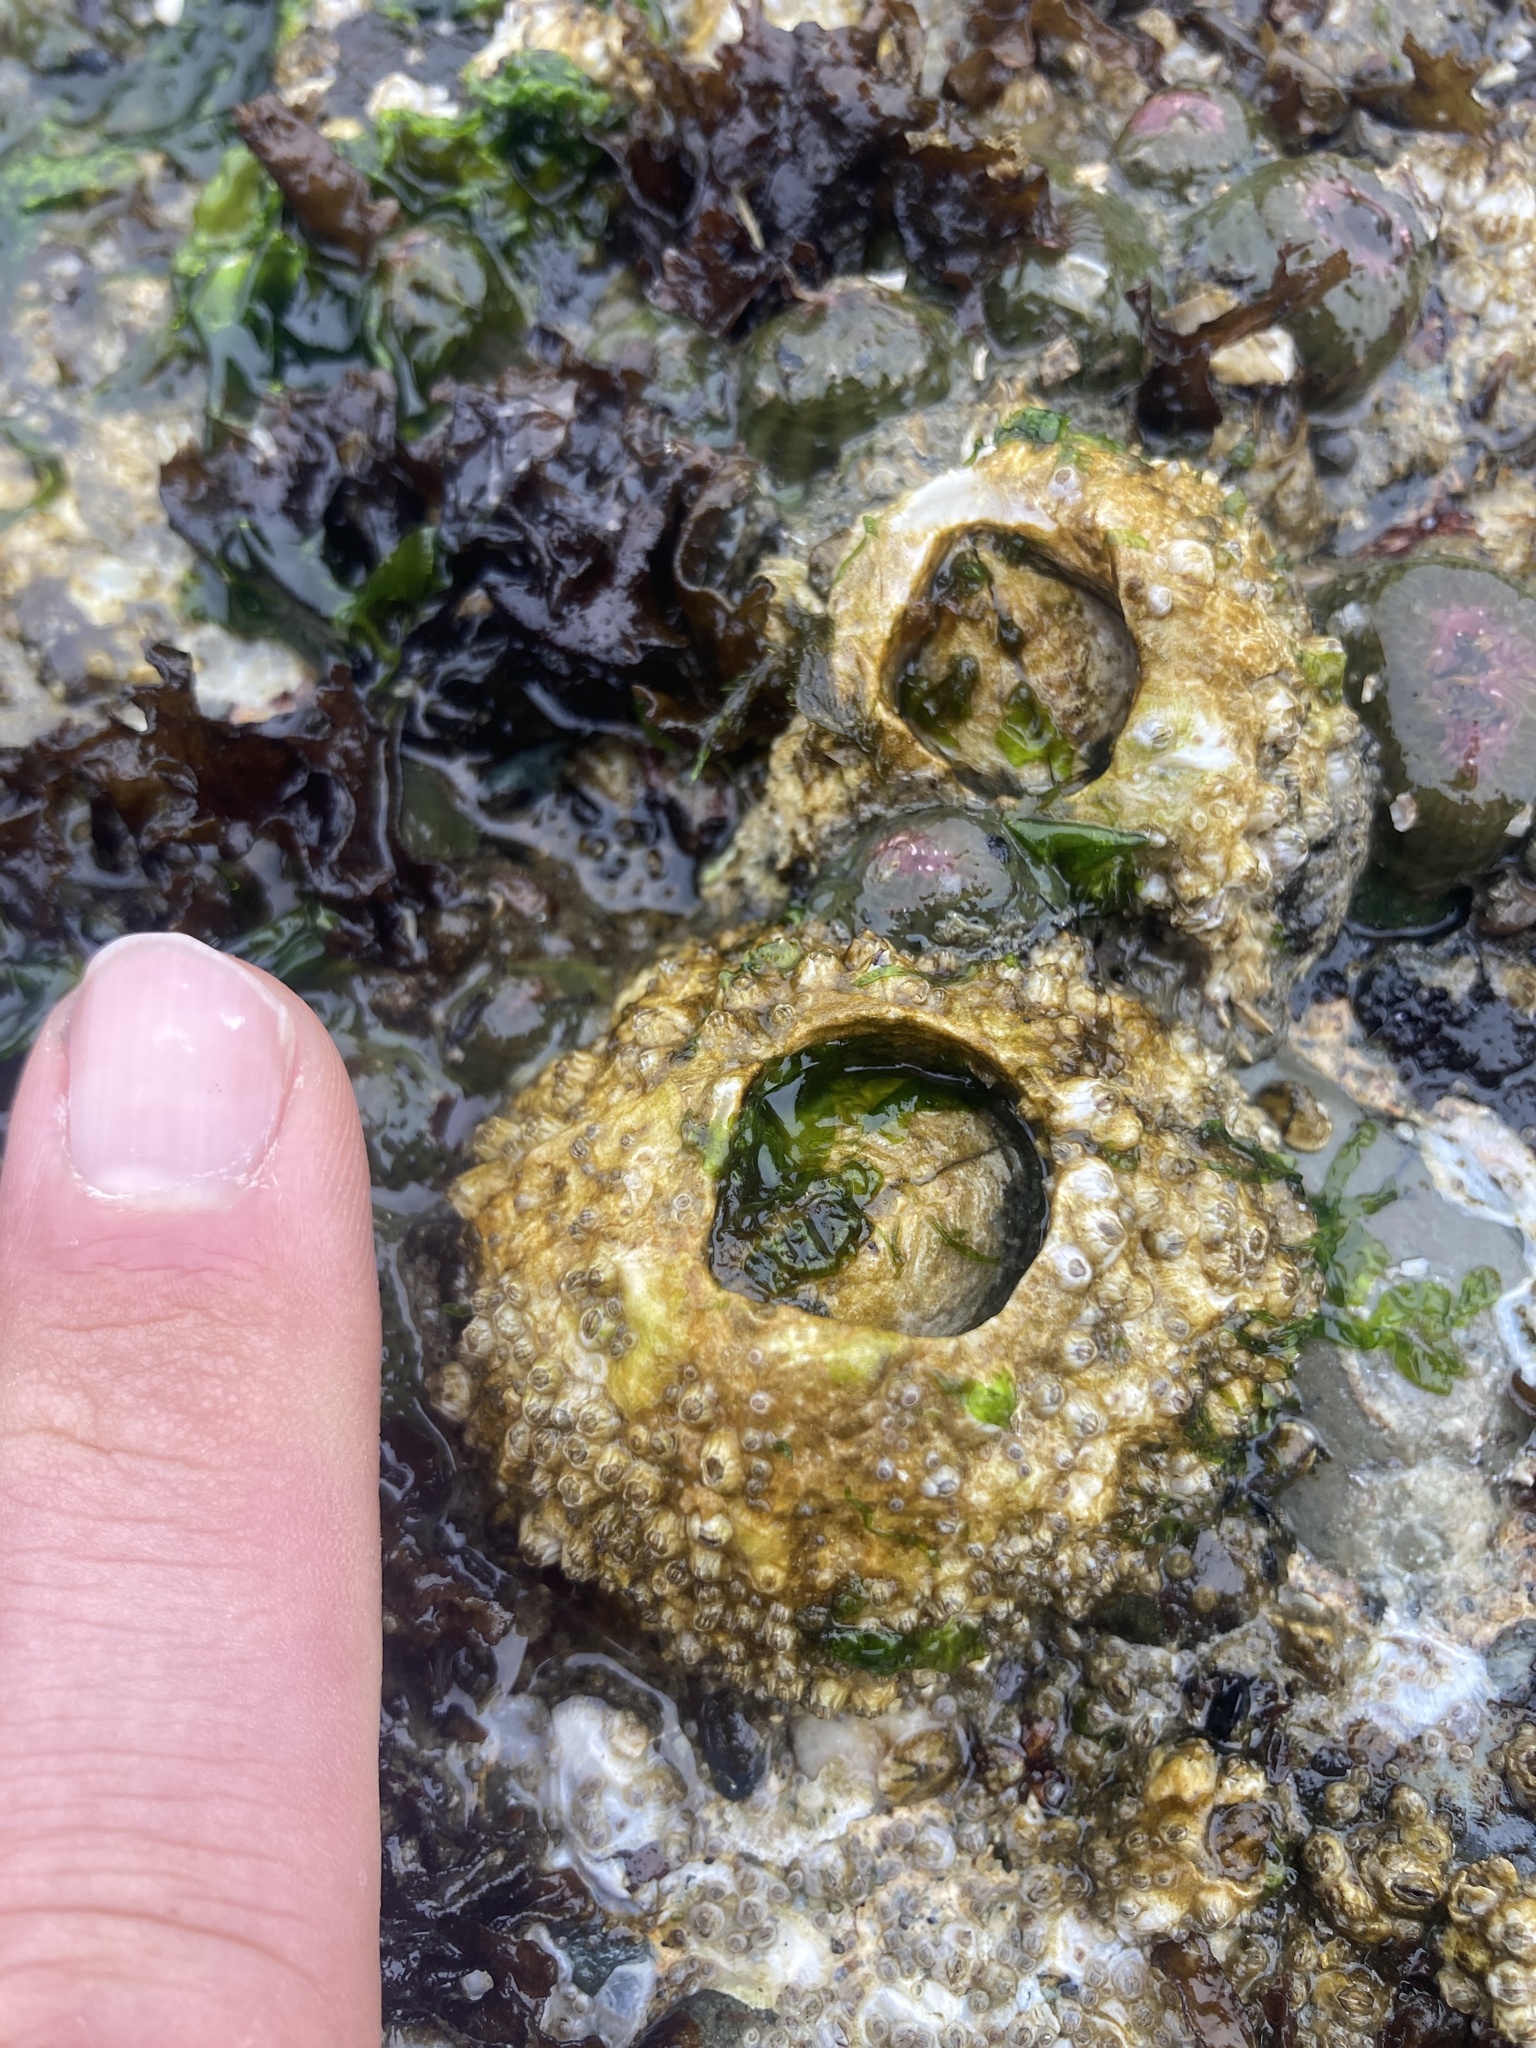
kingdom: Animalia
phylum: Arthropoda
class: Maxillopoda
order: Sessilia
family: Archaeobalanidae
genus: Semibalanus
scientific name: Semibalanus cariosus
